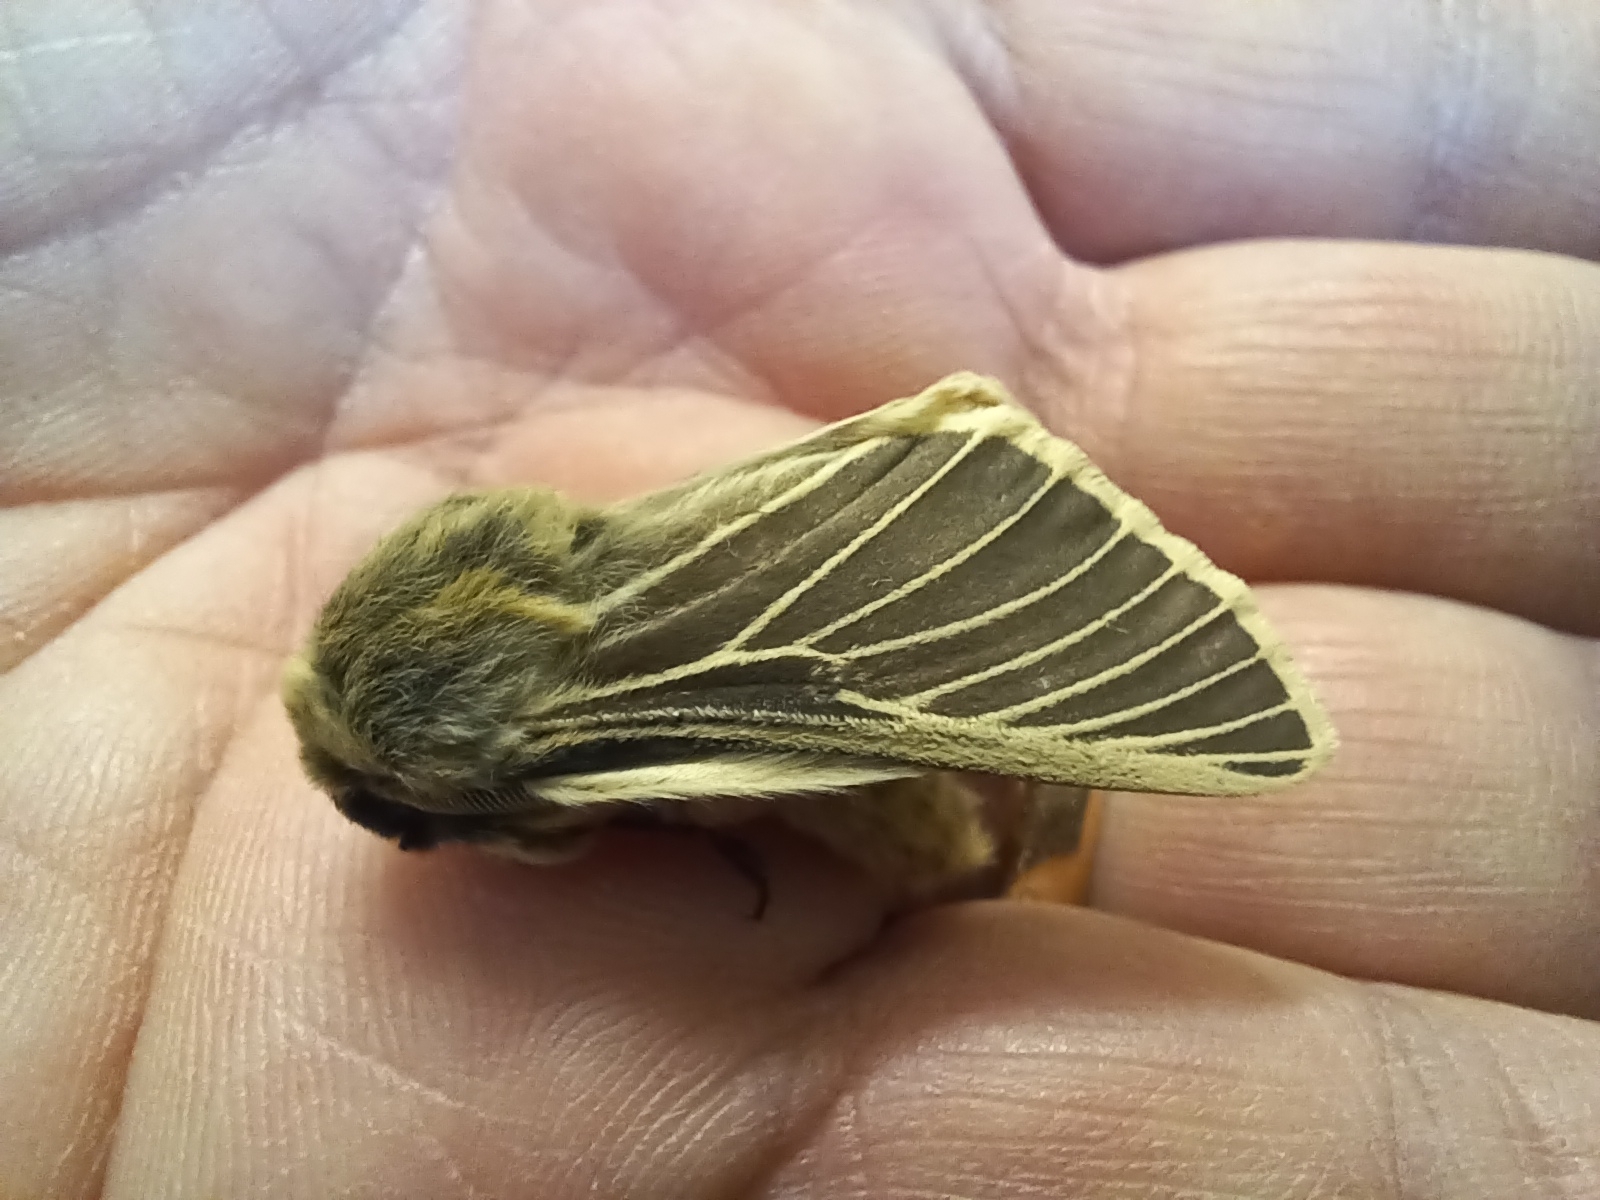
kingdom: Animalia
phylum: Arthropoda
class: Insecta
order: Lepidoptera
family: Brahmaeidae
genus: Lemonia
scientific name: Lemonia philopalus
